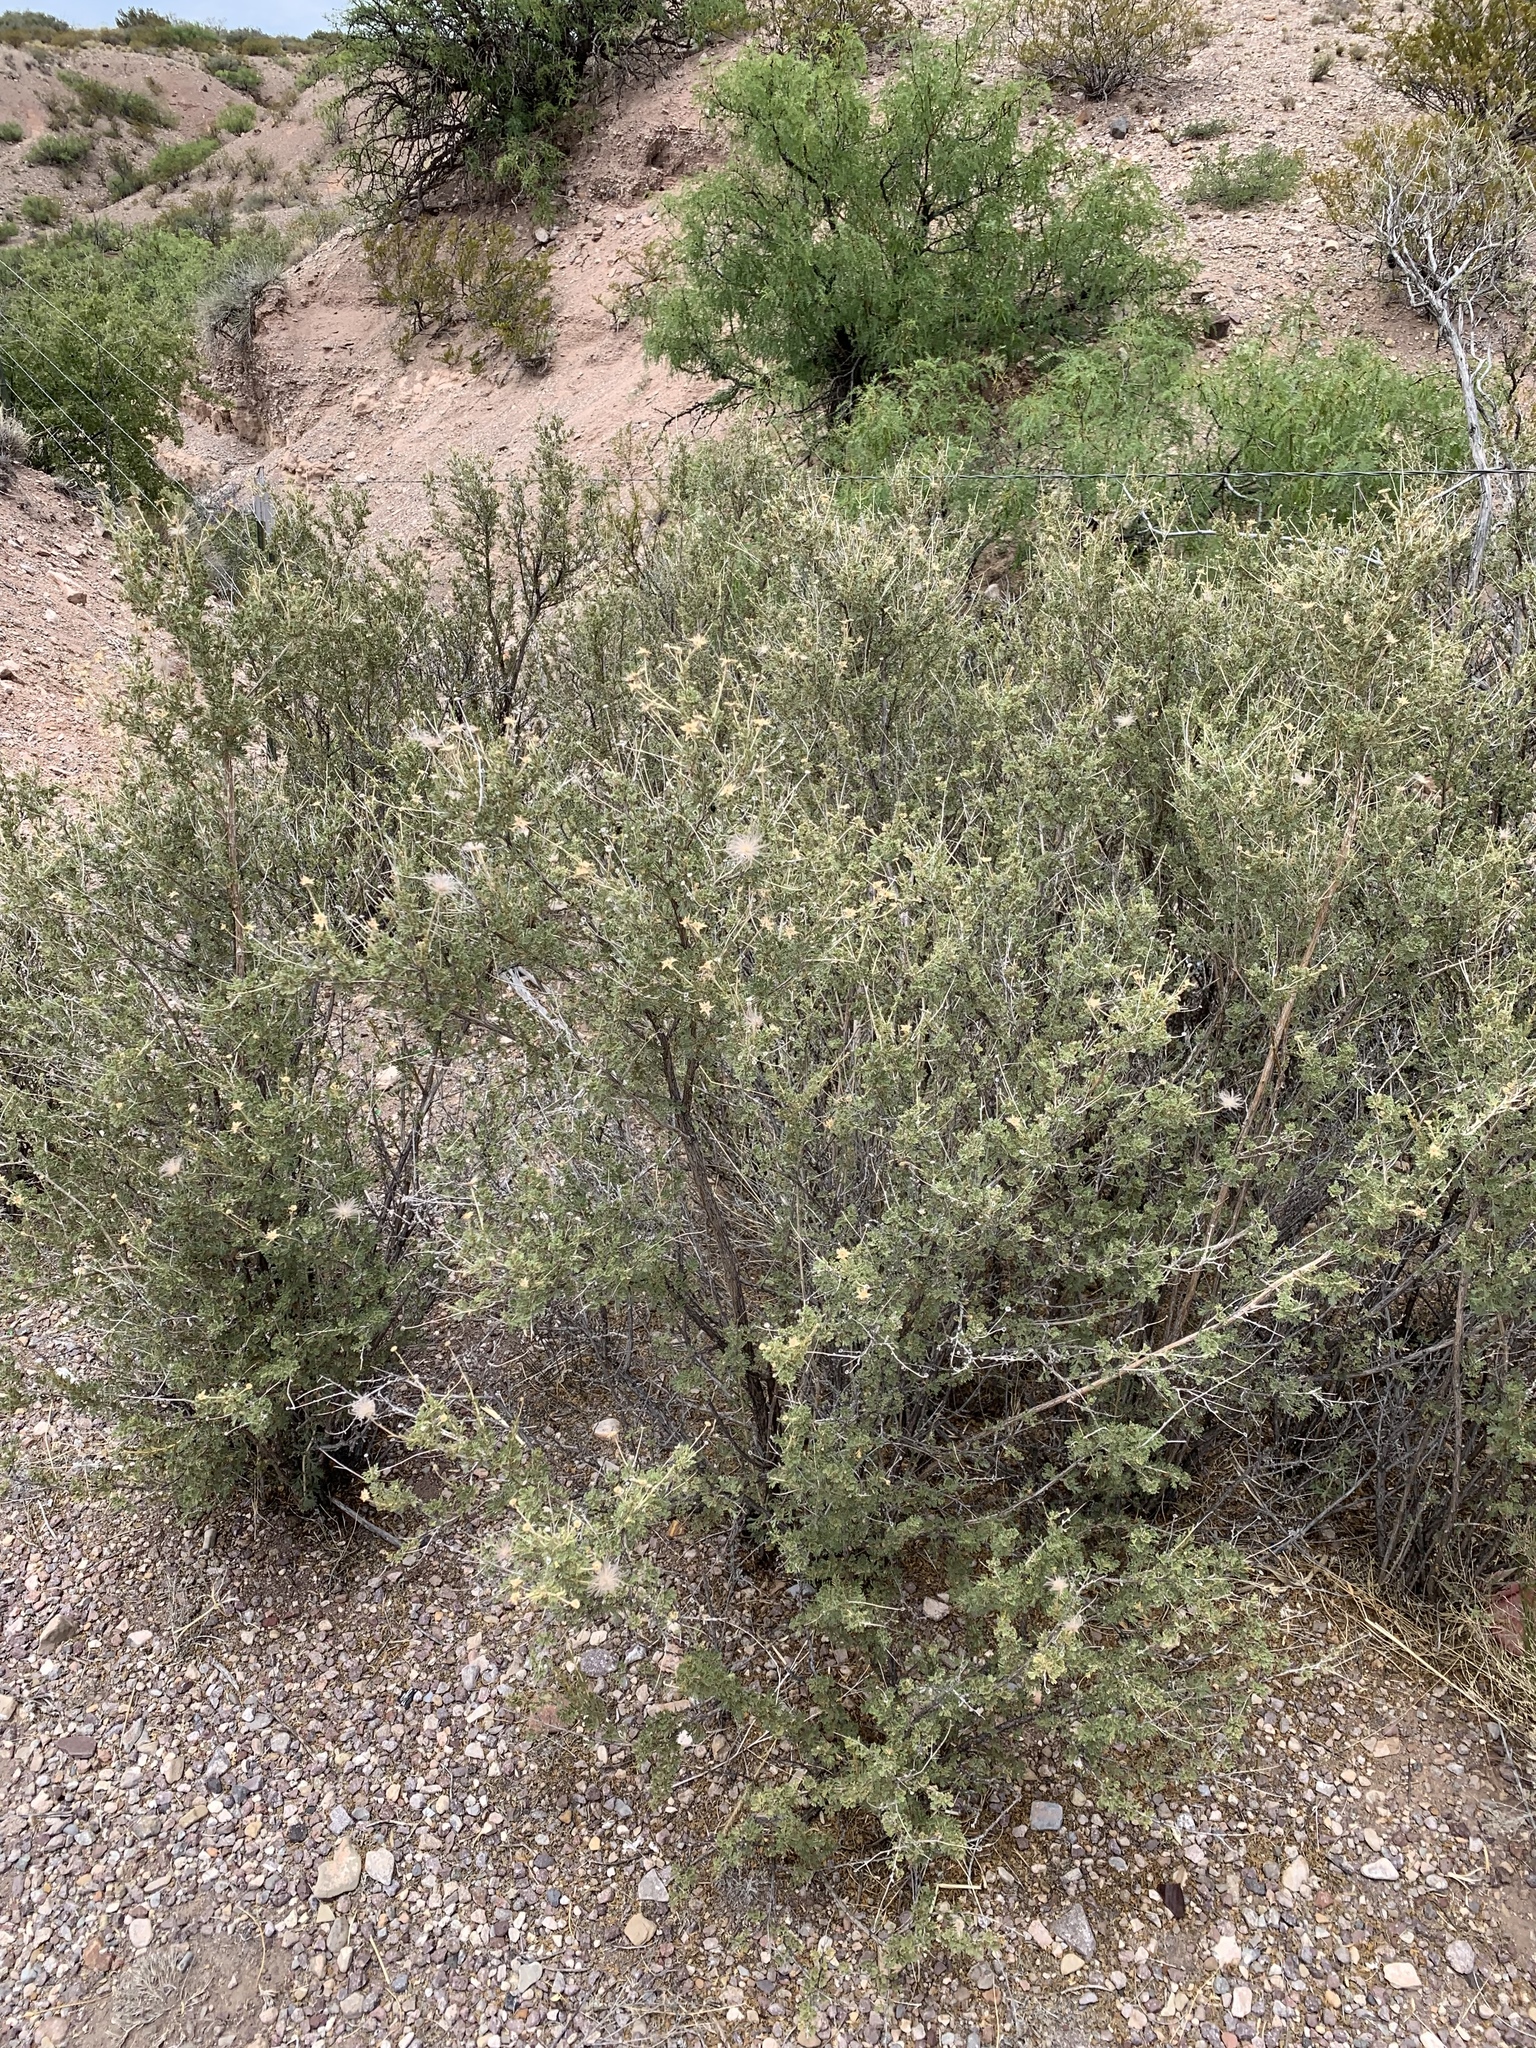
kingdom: Plantae
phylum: Tracheophyta
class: Magnoliopsida
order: Rosales
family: Rosaceae
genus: Fallugia
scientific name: Fallugia paradoxa
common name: Apache-plume
